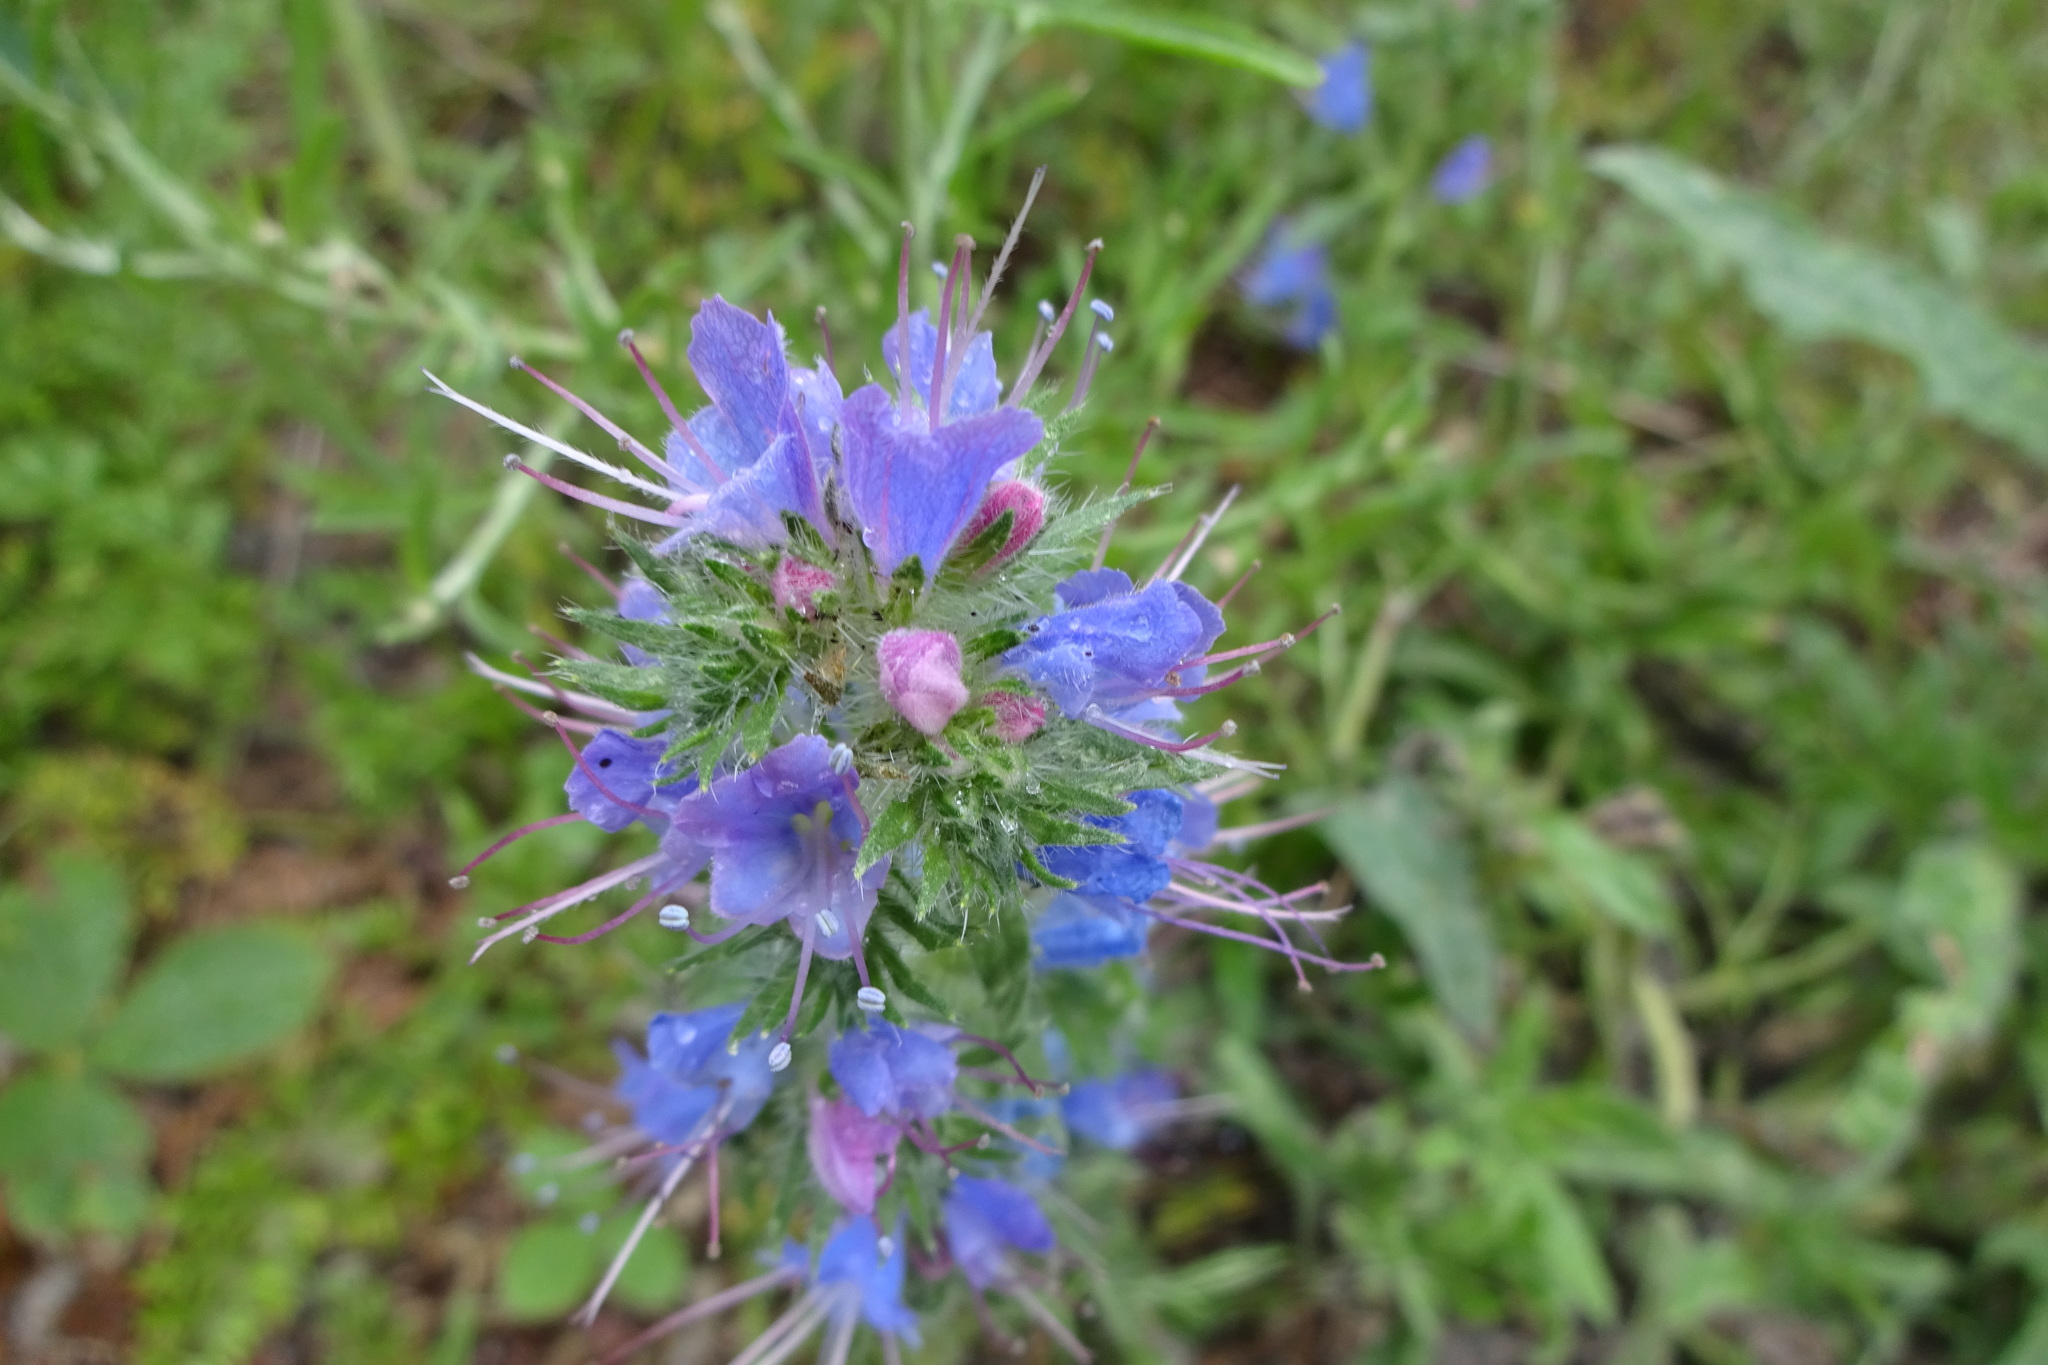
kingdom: Plantae
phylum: Tracheophyta
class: Magnoliopsida
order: Boraginales
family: Boraginaceae
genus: Echium
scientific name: Echium vulgare
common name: Common viper's bugloss
